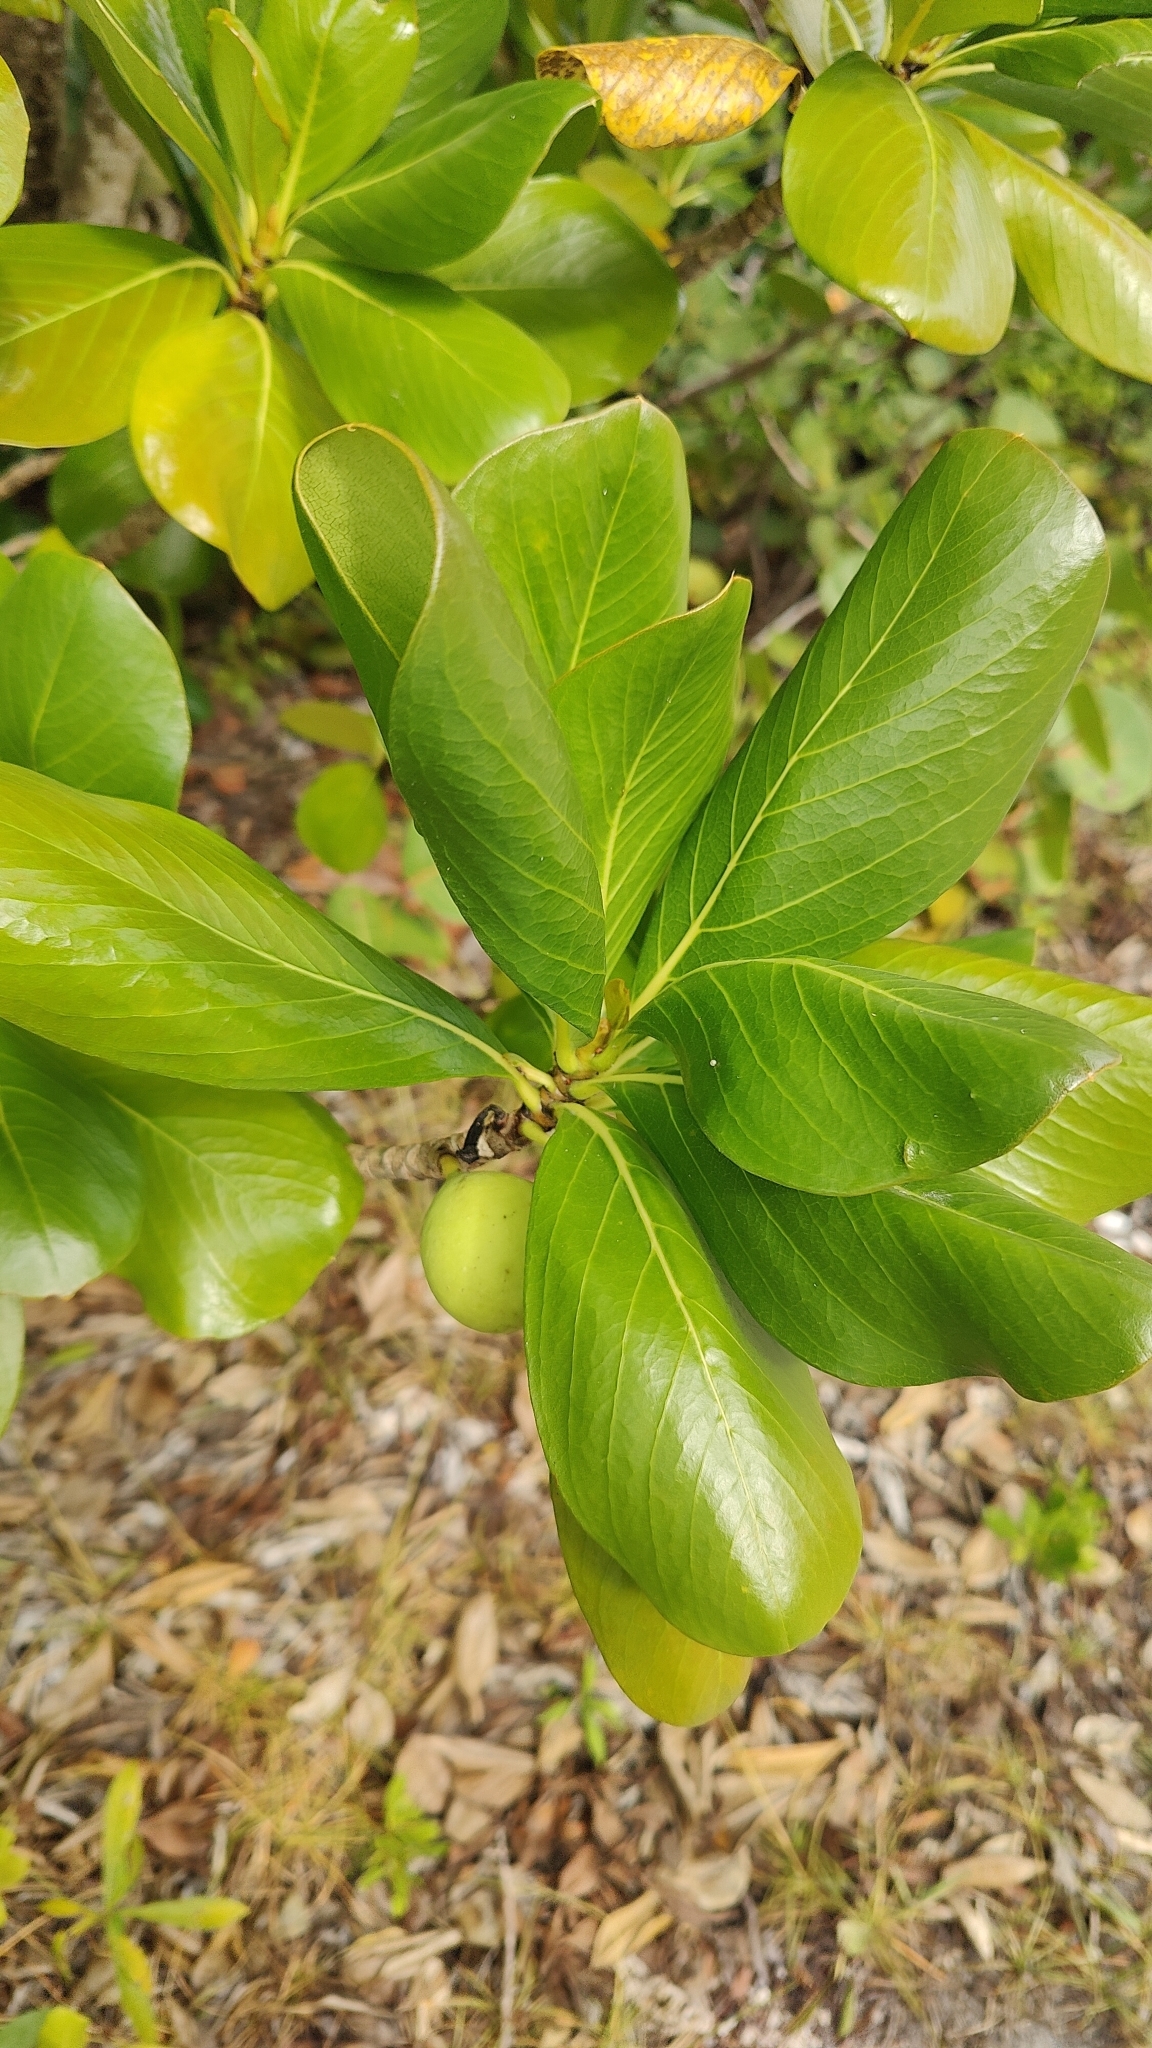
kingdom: Plantae
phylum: Tracheophyta
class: Magnoliopsida
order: Gentianales
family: Rubiaceae
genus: Casasia
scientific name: Casasia clusiifolia
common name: Seven-year apple
